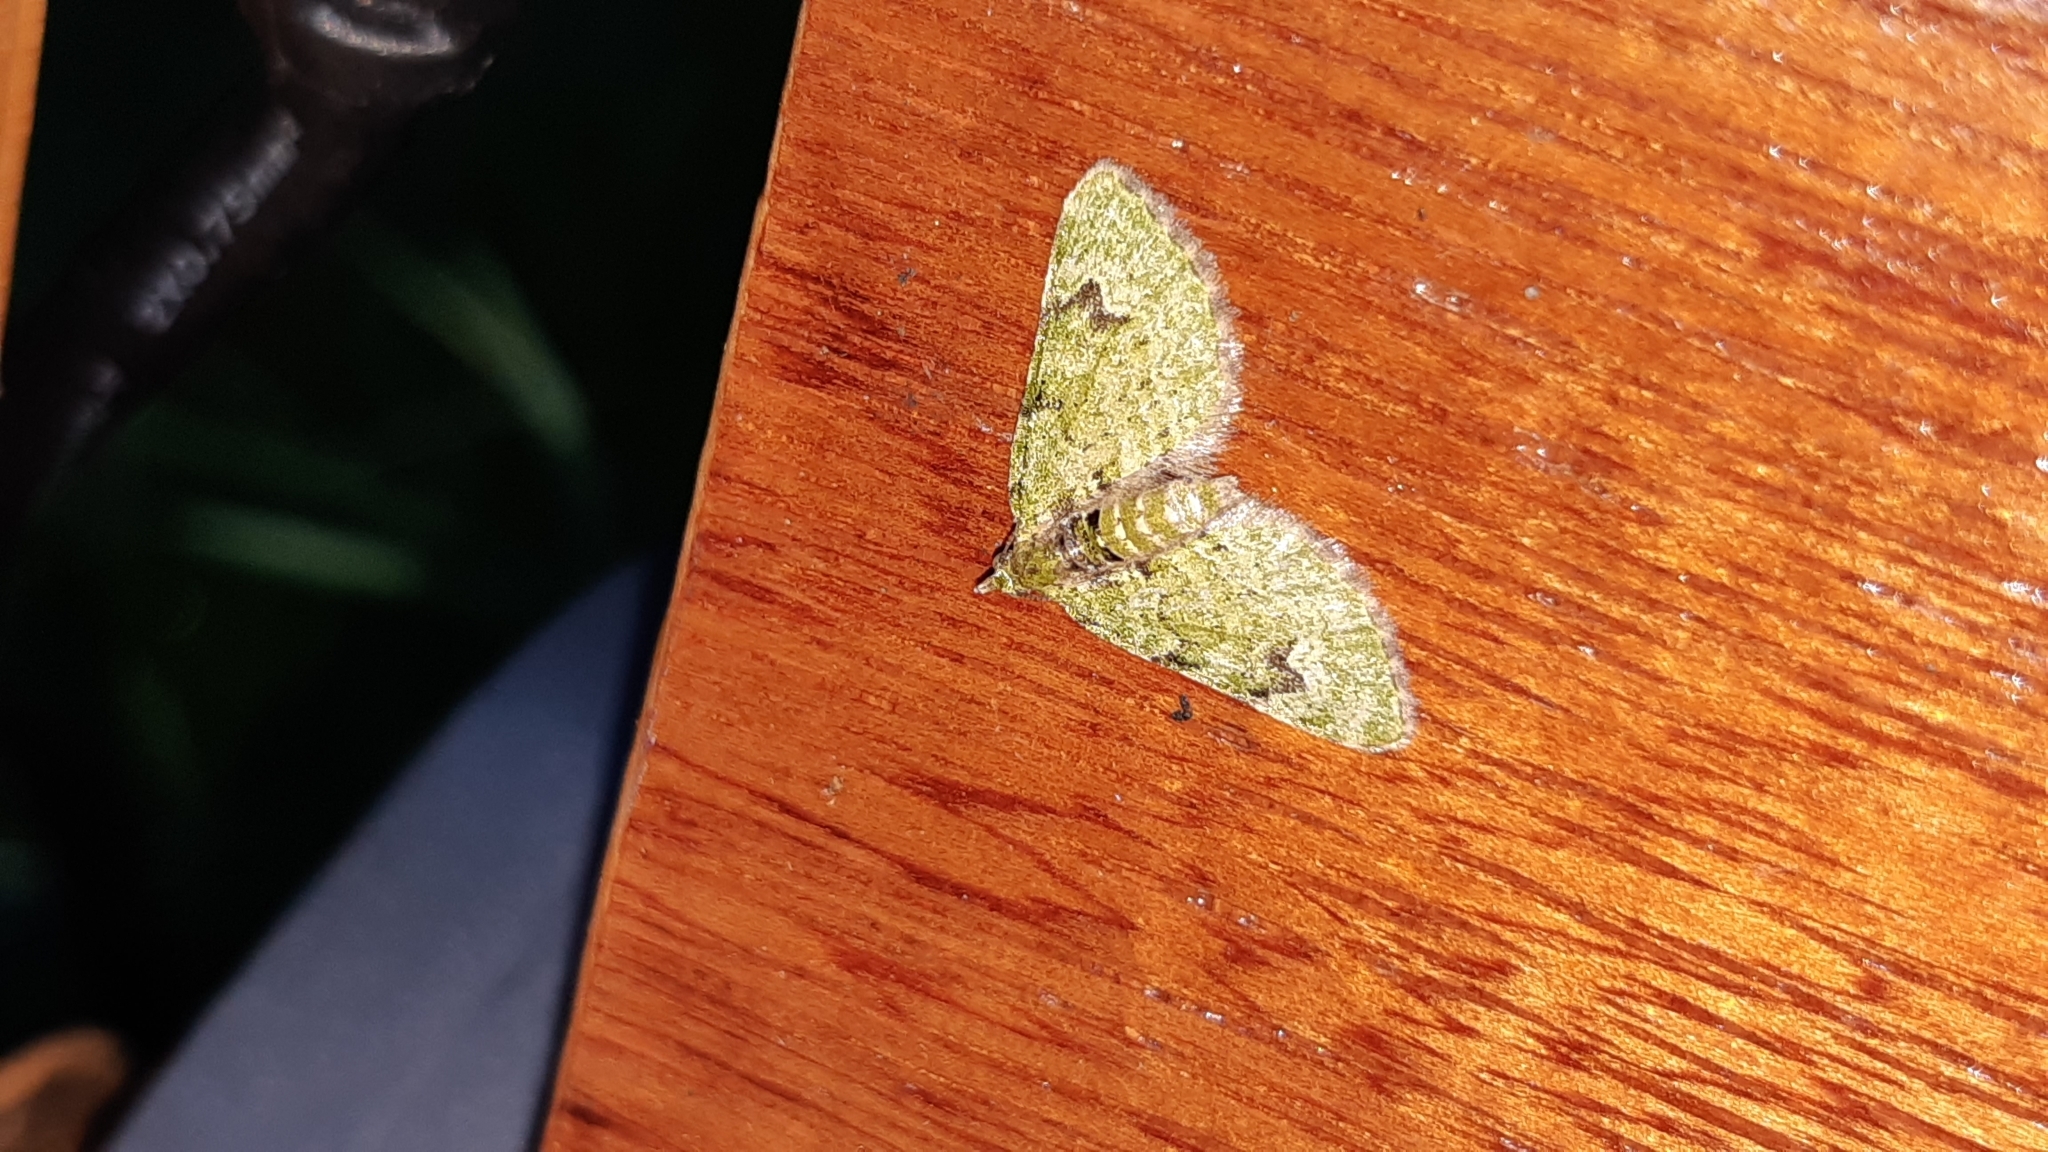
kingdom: Animalia
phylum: Arthropoda
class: Insecta
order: Lepidoptera
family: Geometridae
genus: Chloroclystis
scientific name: Chloroclystis v-ata
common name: V-pug
